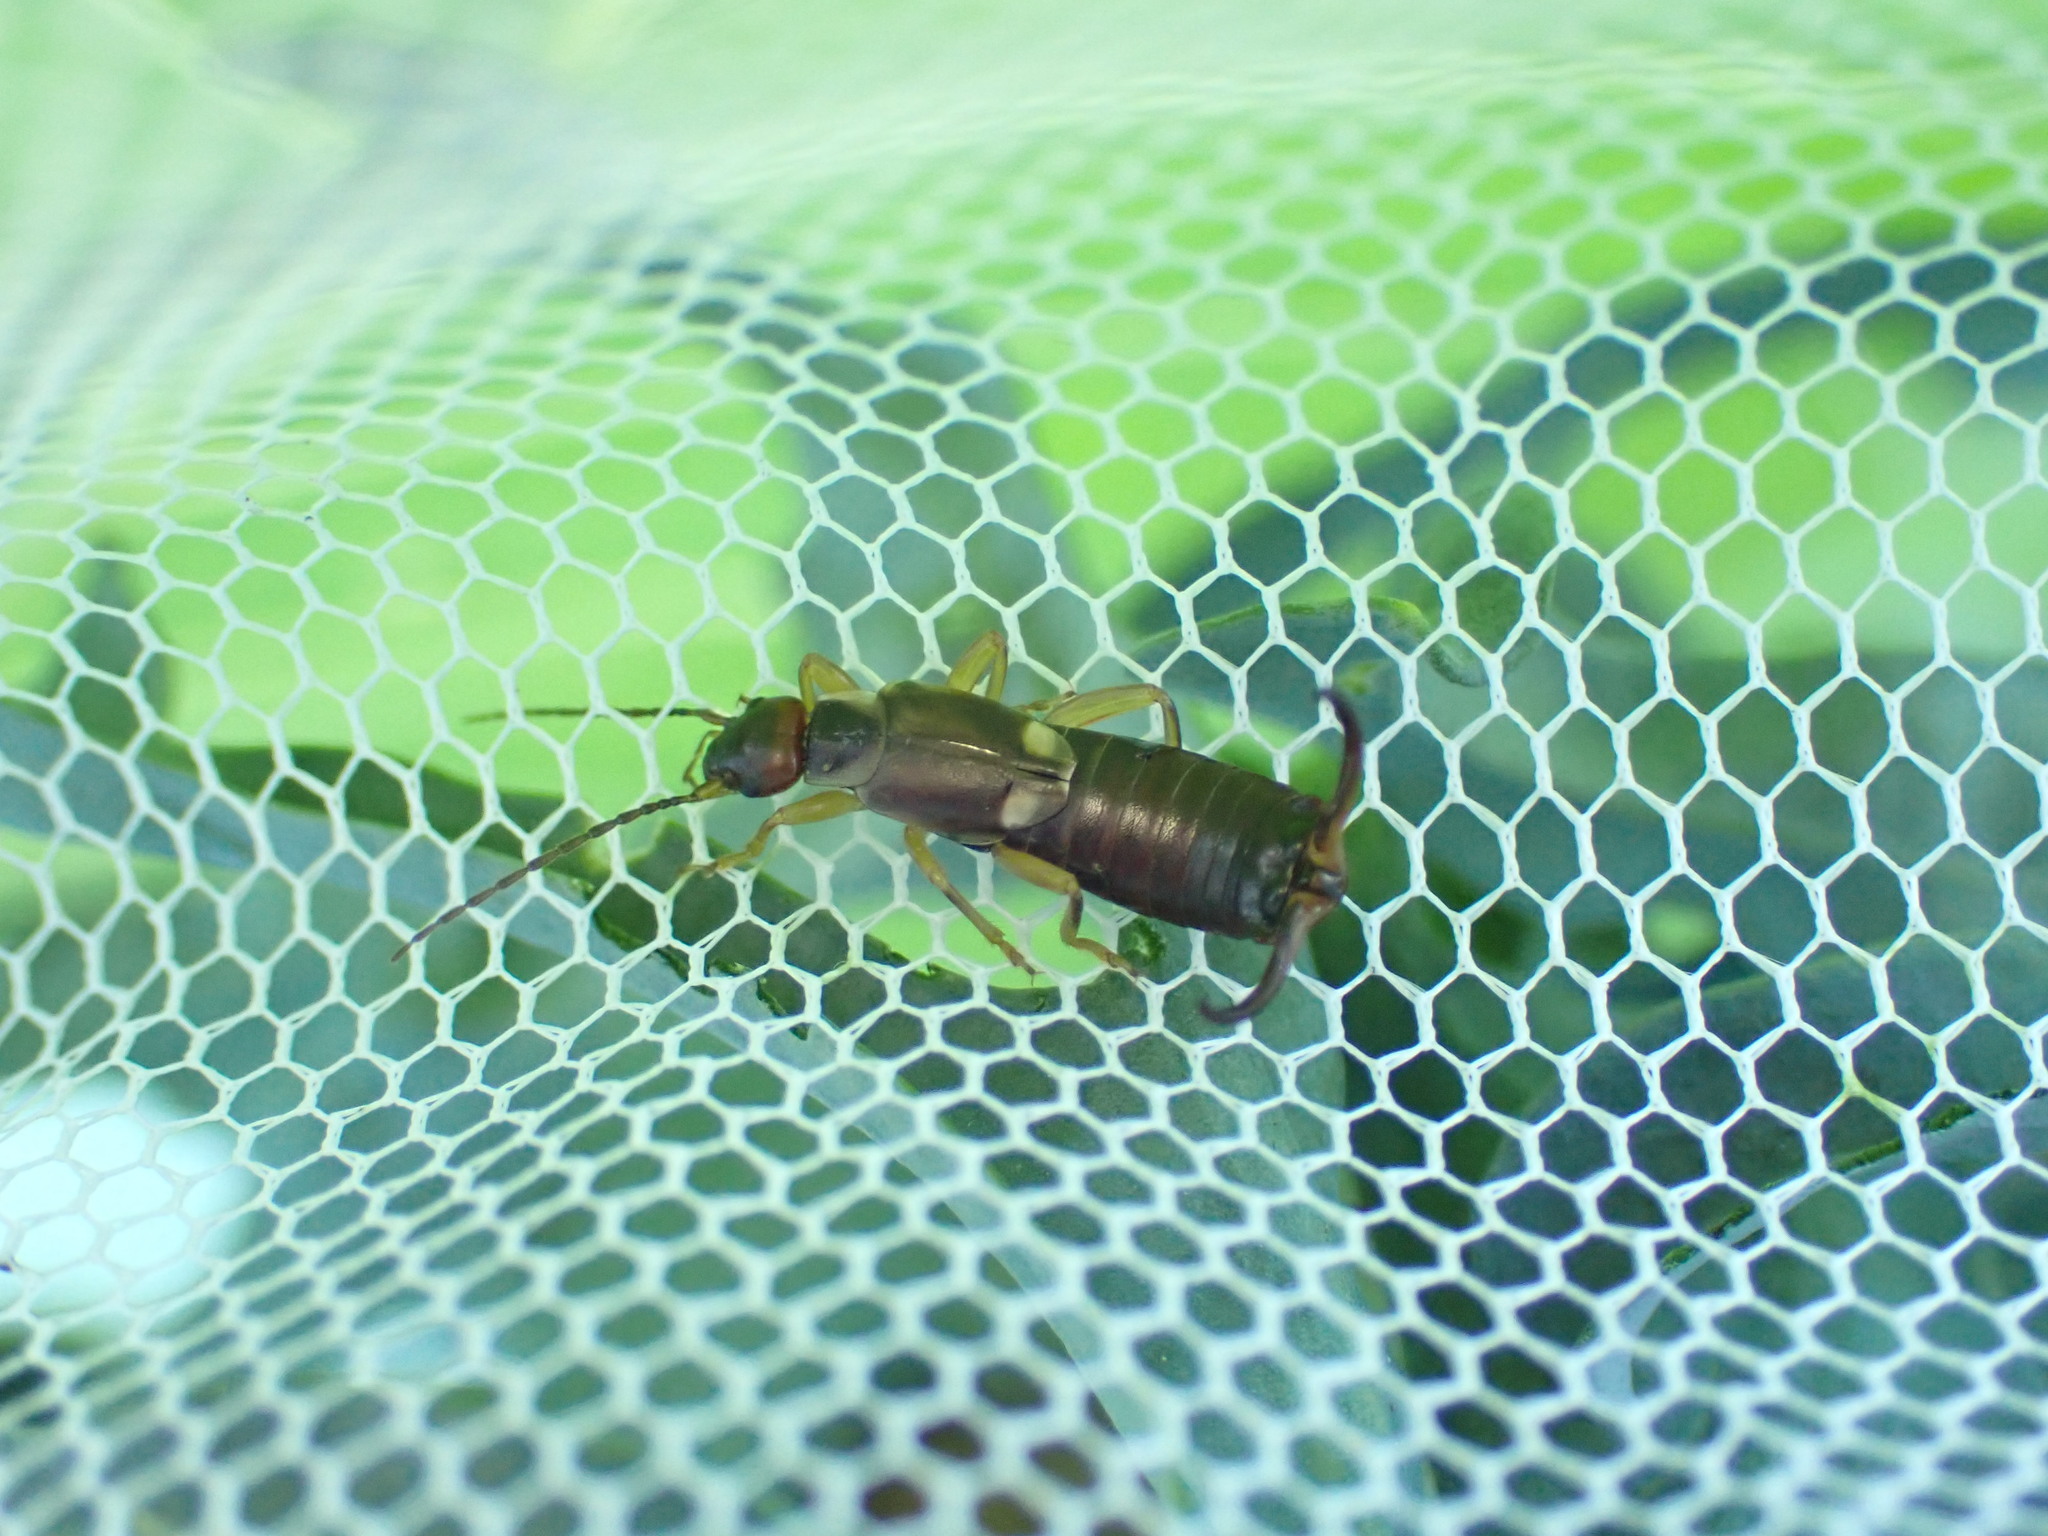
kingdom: Animalia
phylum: Arthropoda
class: Insecta
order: Dermaptera
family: Forficulidae
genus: Forficula
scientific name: Forficula
